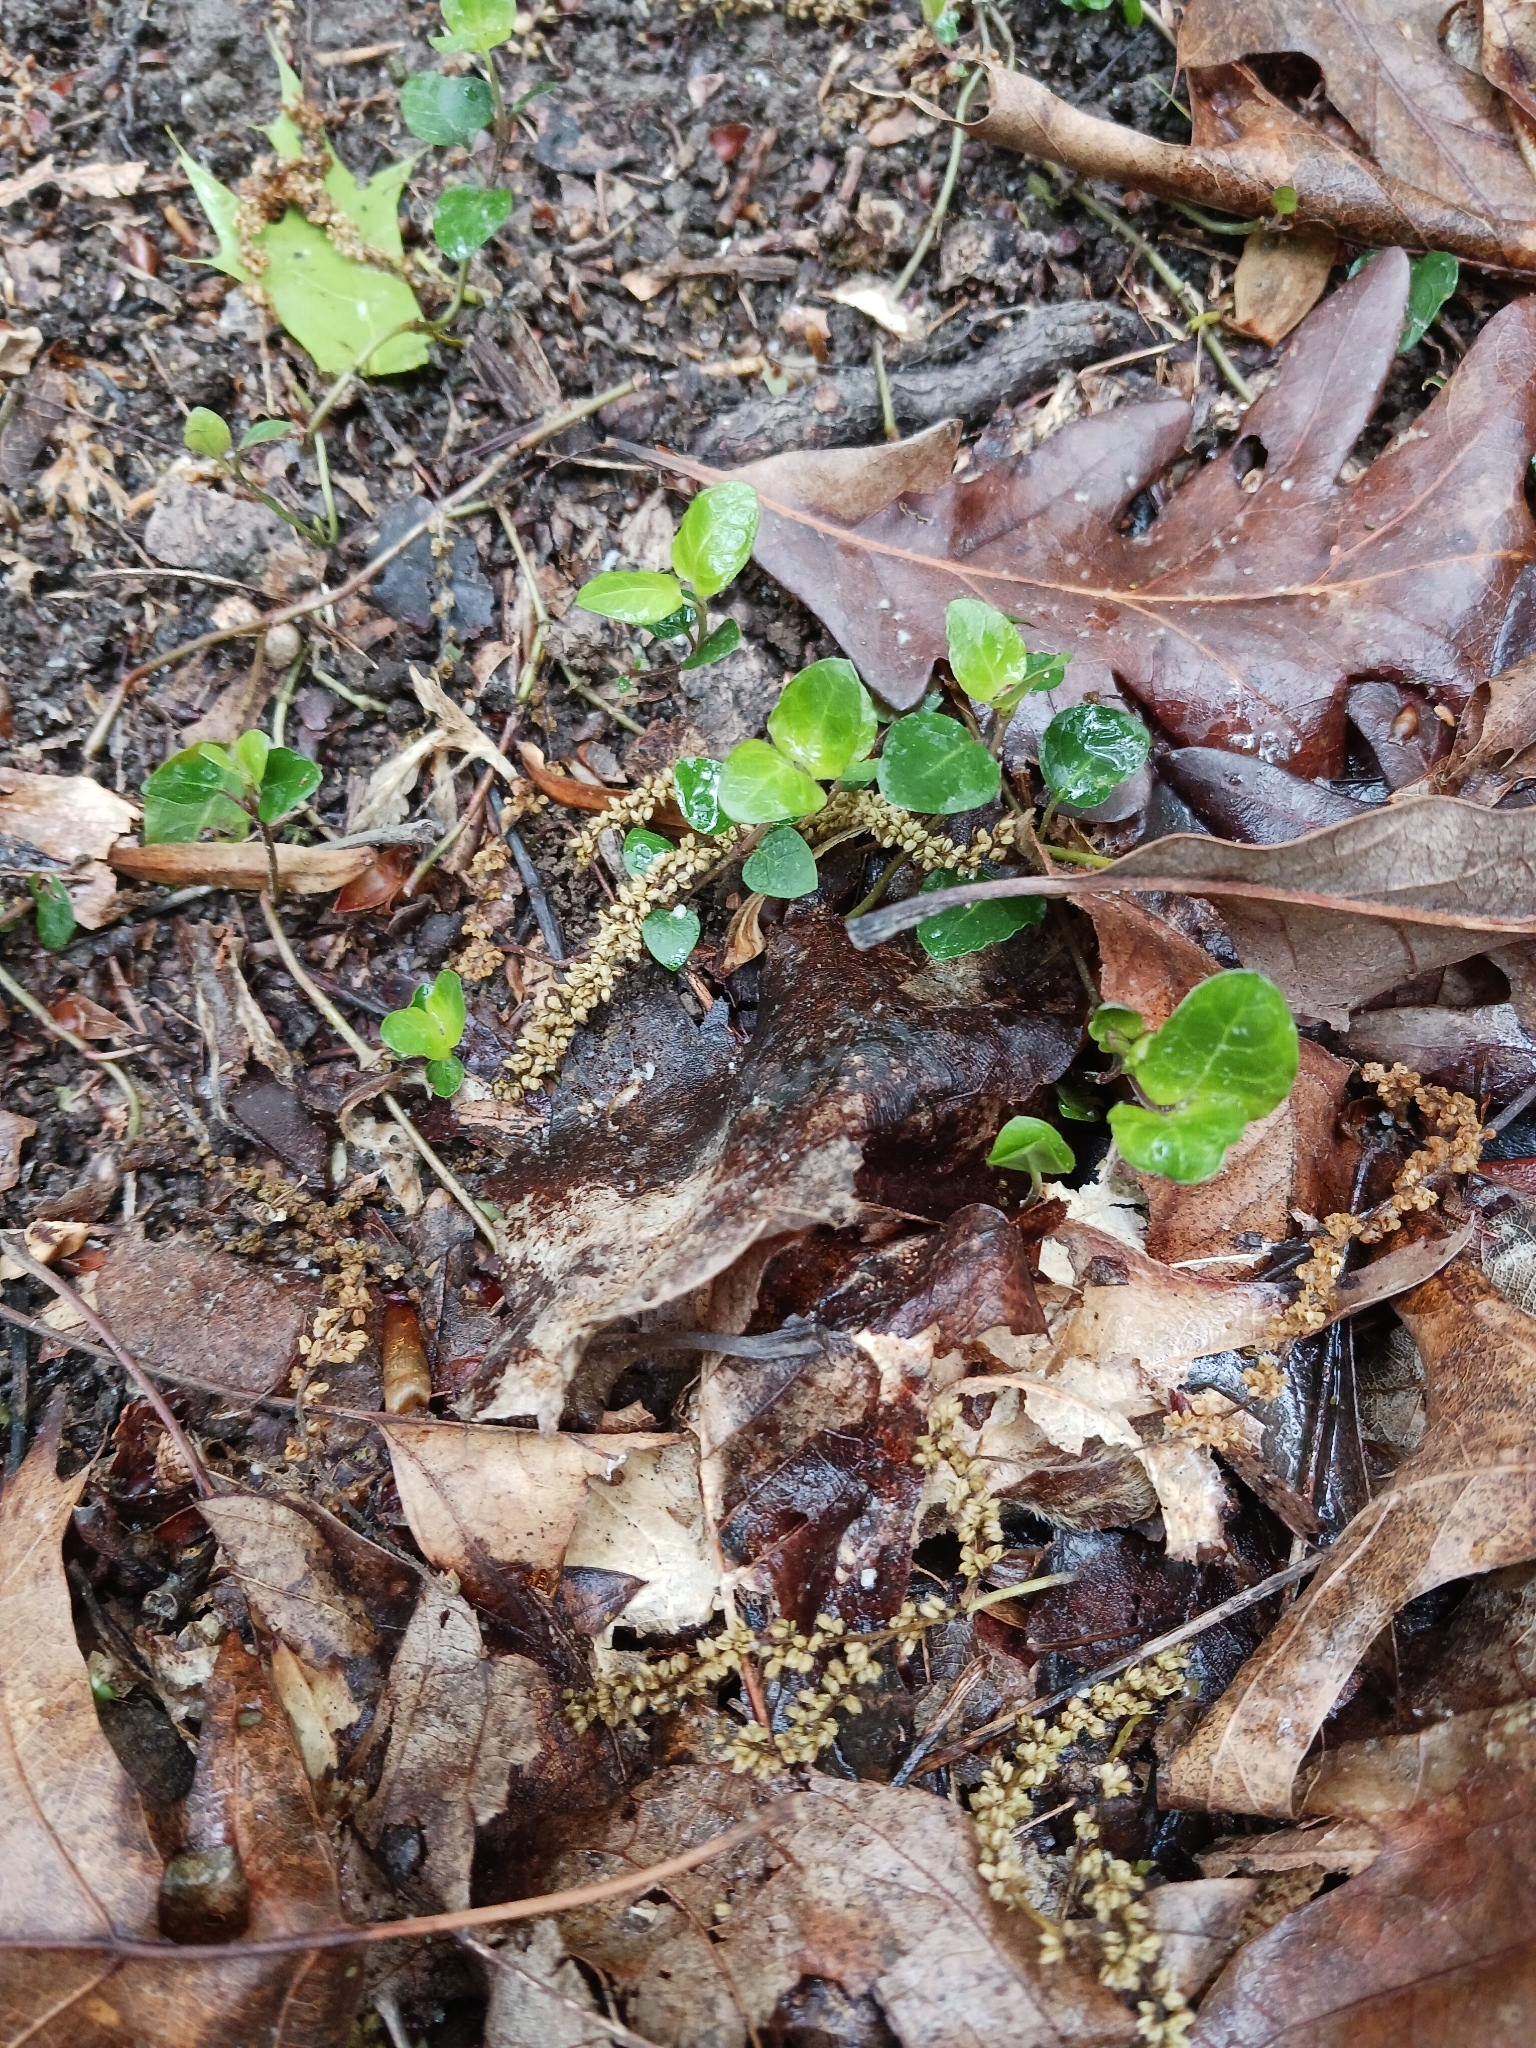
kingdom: Plantae
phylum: Tracheophyta
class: Magnoliopsida
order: Gentianales
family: Rubiaceae
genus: Mitchella
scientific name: Mitchella repens
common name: Partridge-berry
